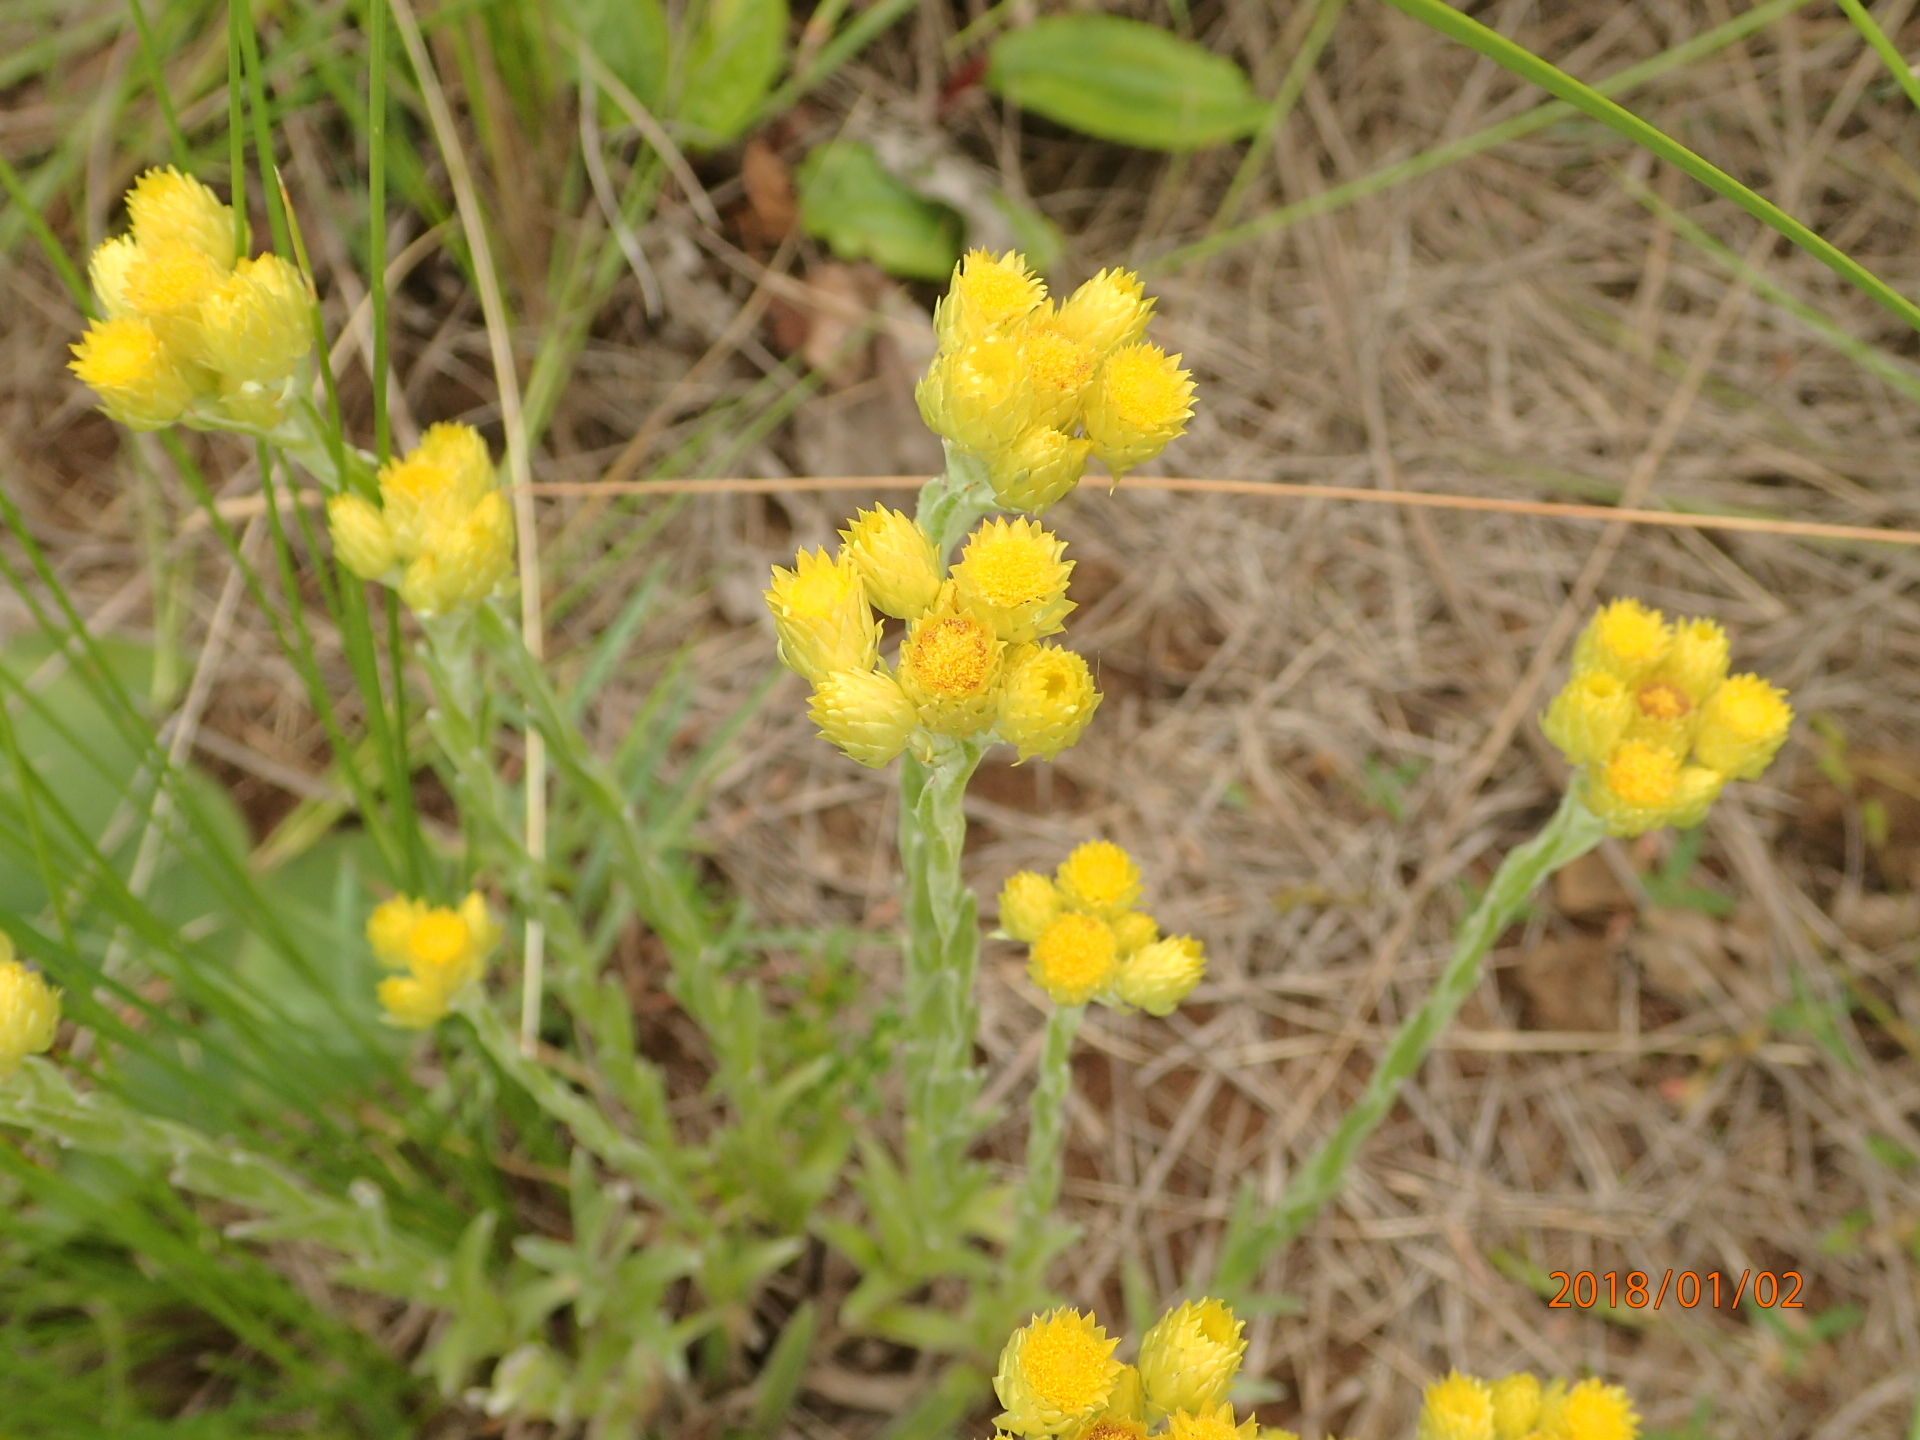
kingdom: Plantae
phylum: Tracheophyta
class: Magnoliopsida
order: Asterales
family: Asteraceae
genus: Helichrysum
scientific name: Helichrysum appendiculatum
